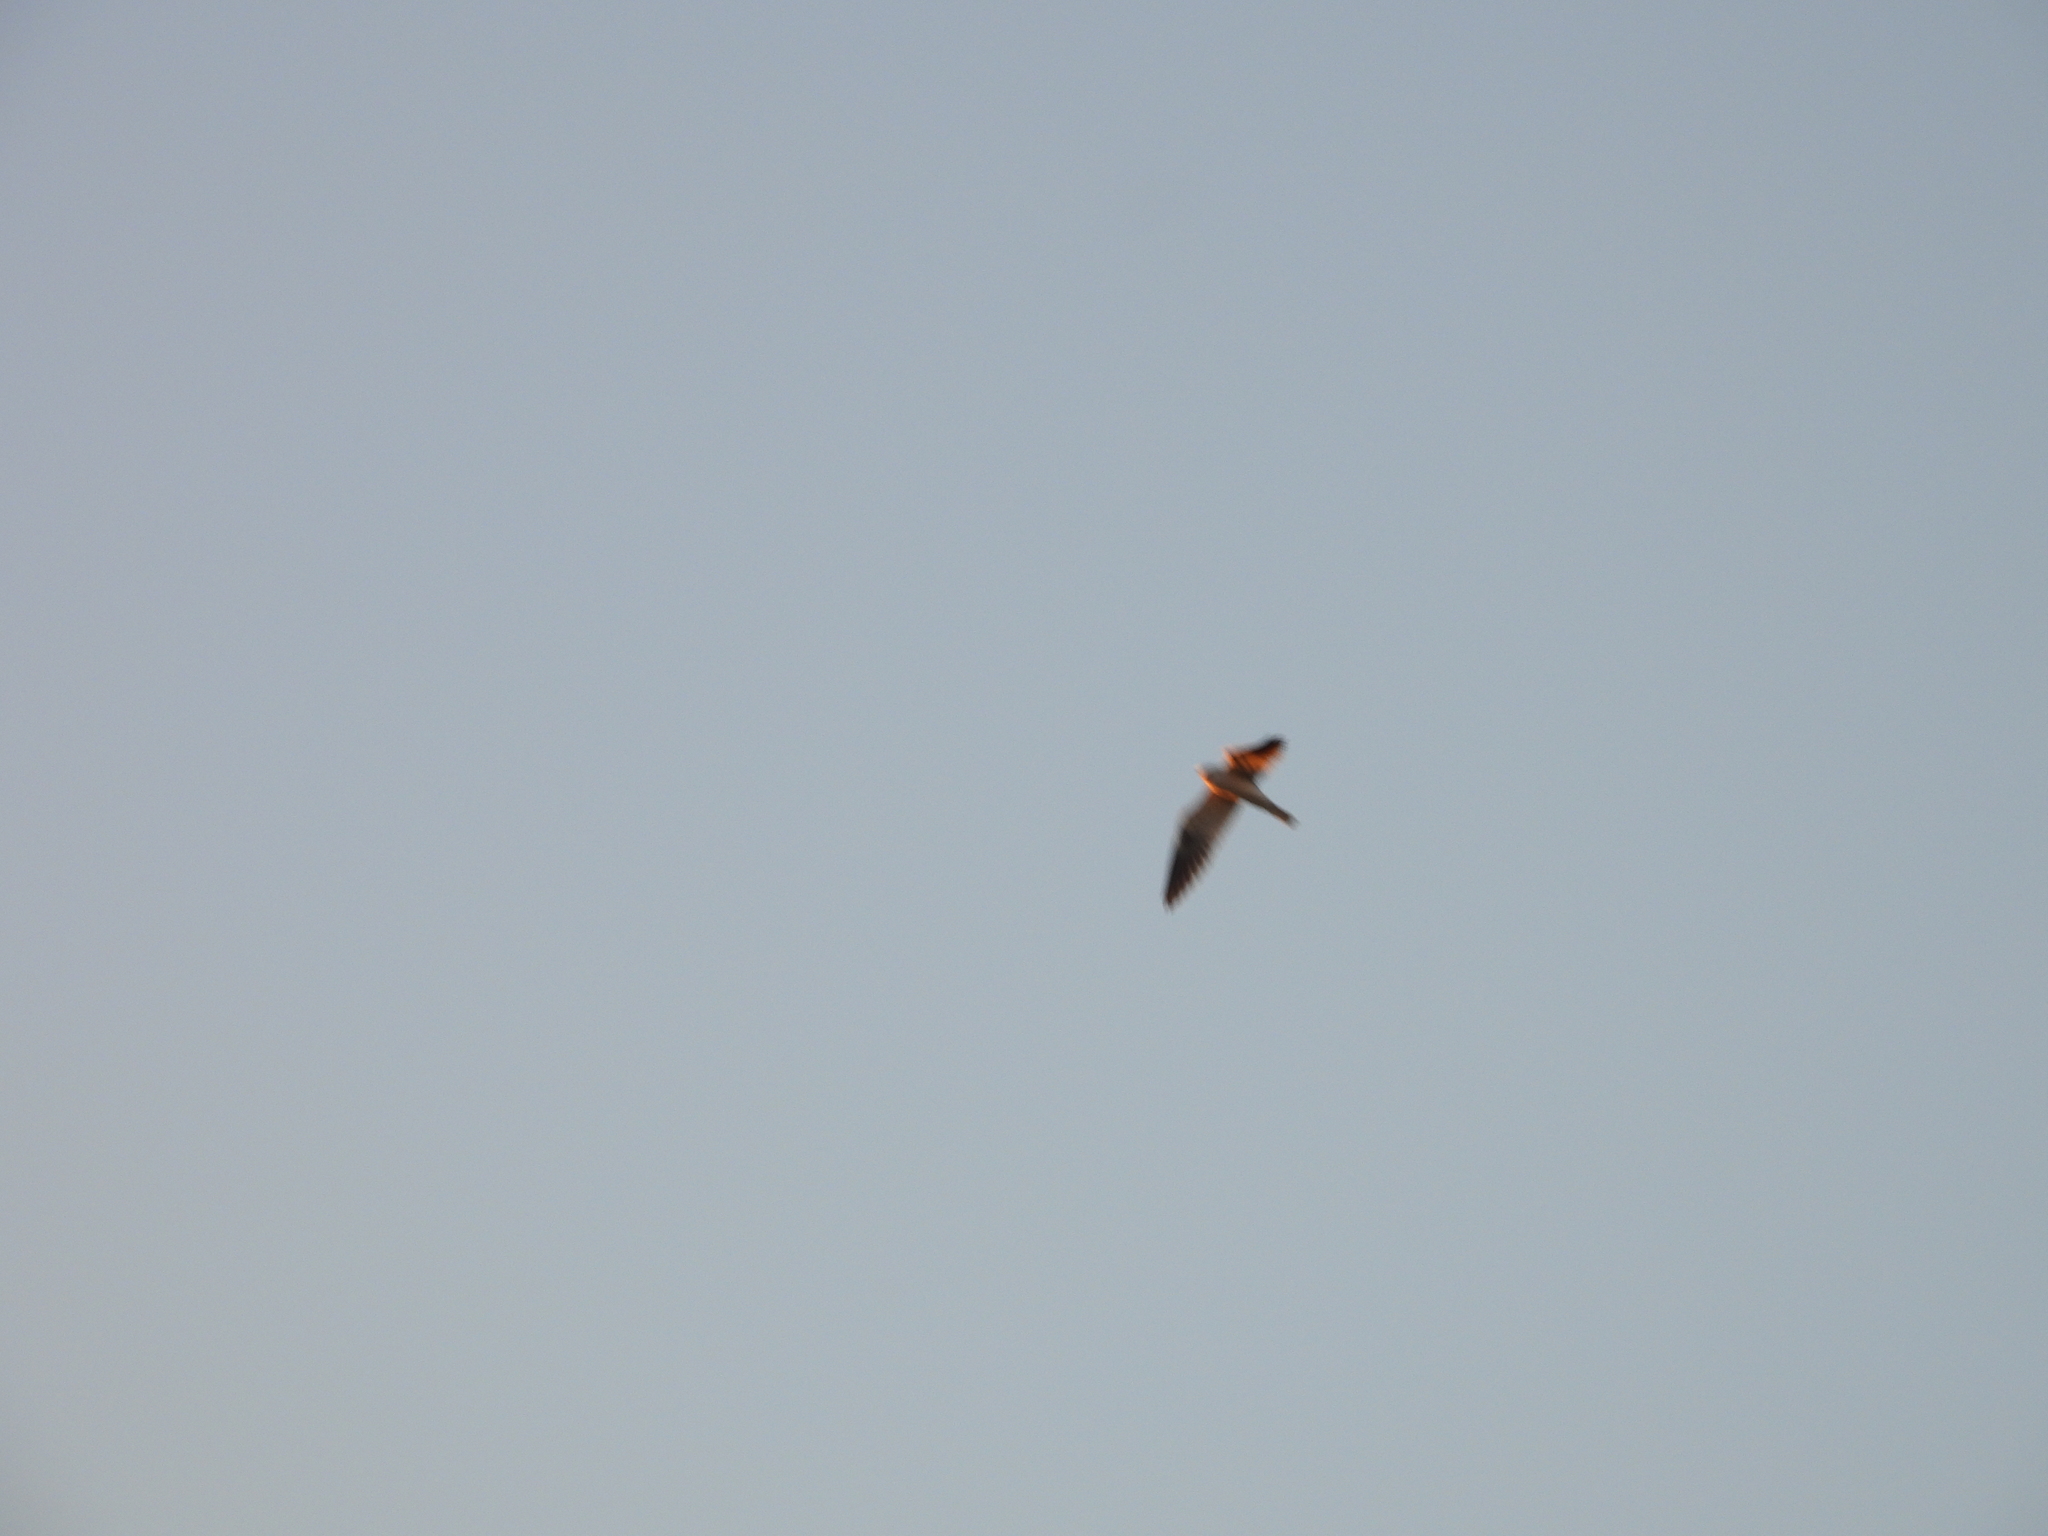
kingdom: Animalia
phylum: Chordata
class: Aves
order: Accipitriformes
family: Accipitridae
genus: Elanus
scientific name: Elanus leucurus
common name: White-tailed kite
